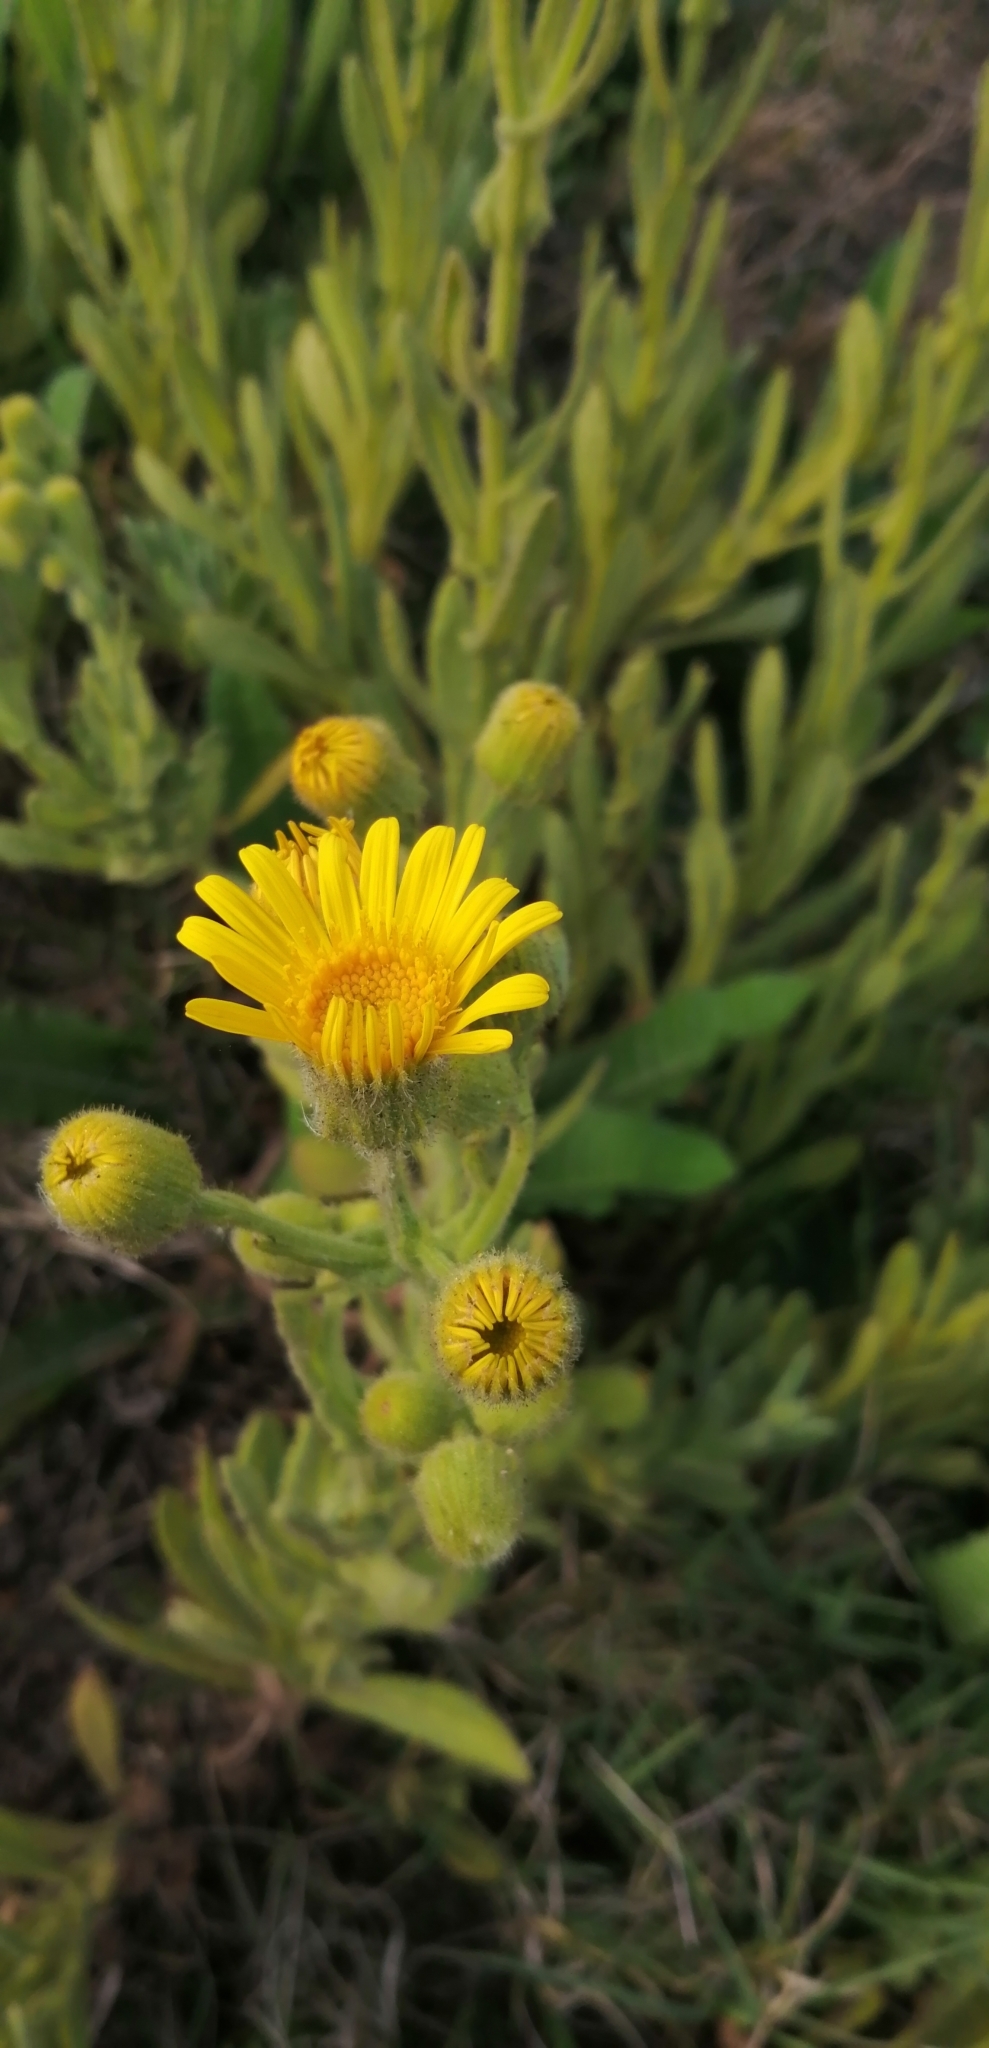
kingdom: Plantae
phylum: Tracheophyta
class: Magnoliopsida
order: Asterales
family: Asteraceae
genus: Senecio
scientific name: Senecio selloi
